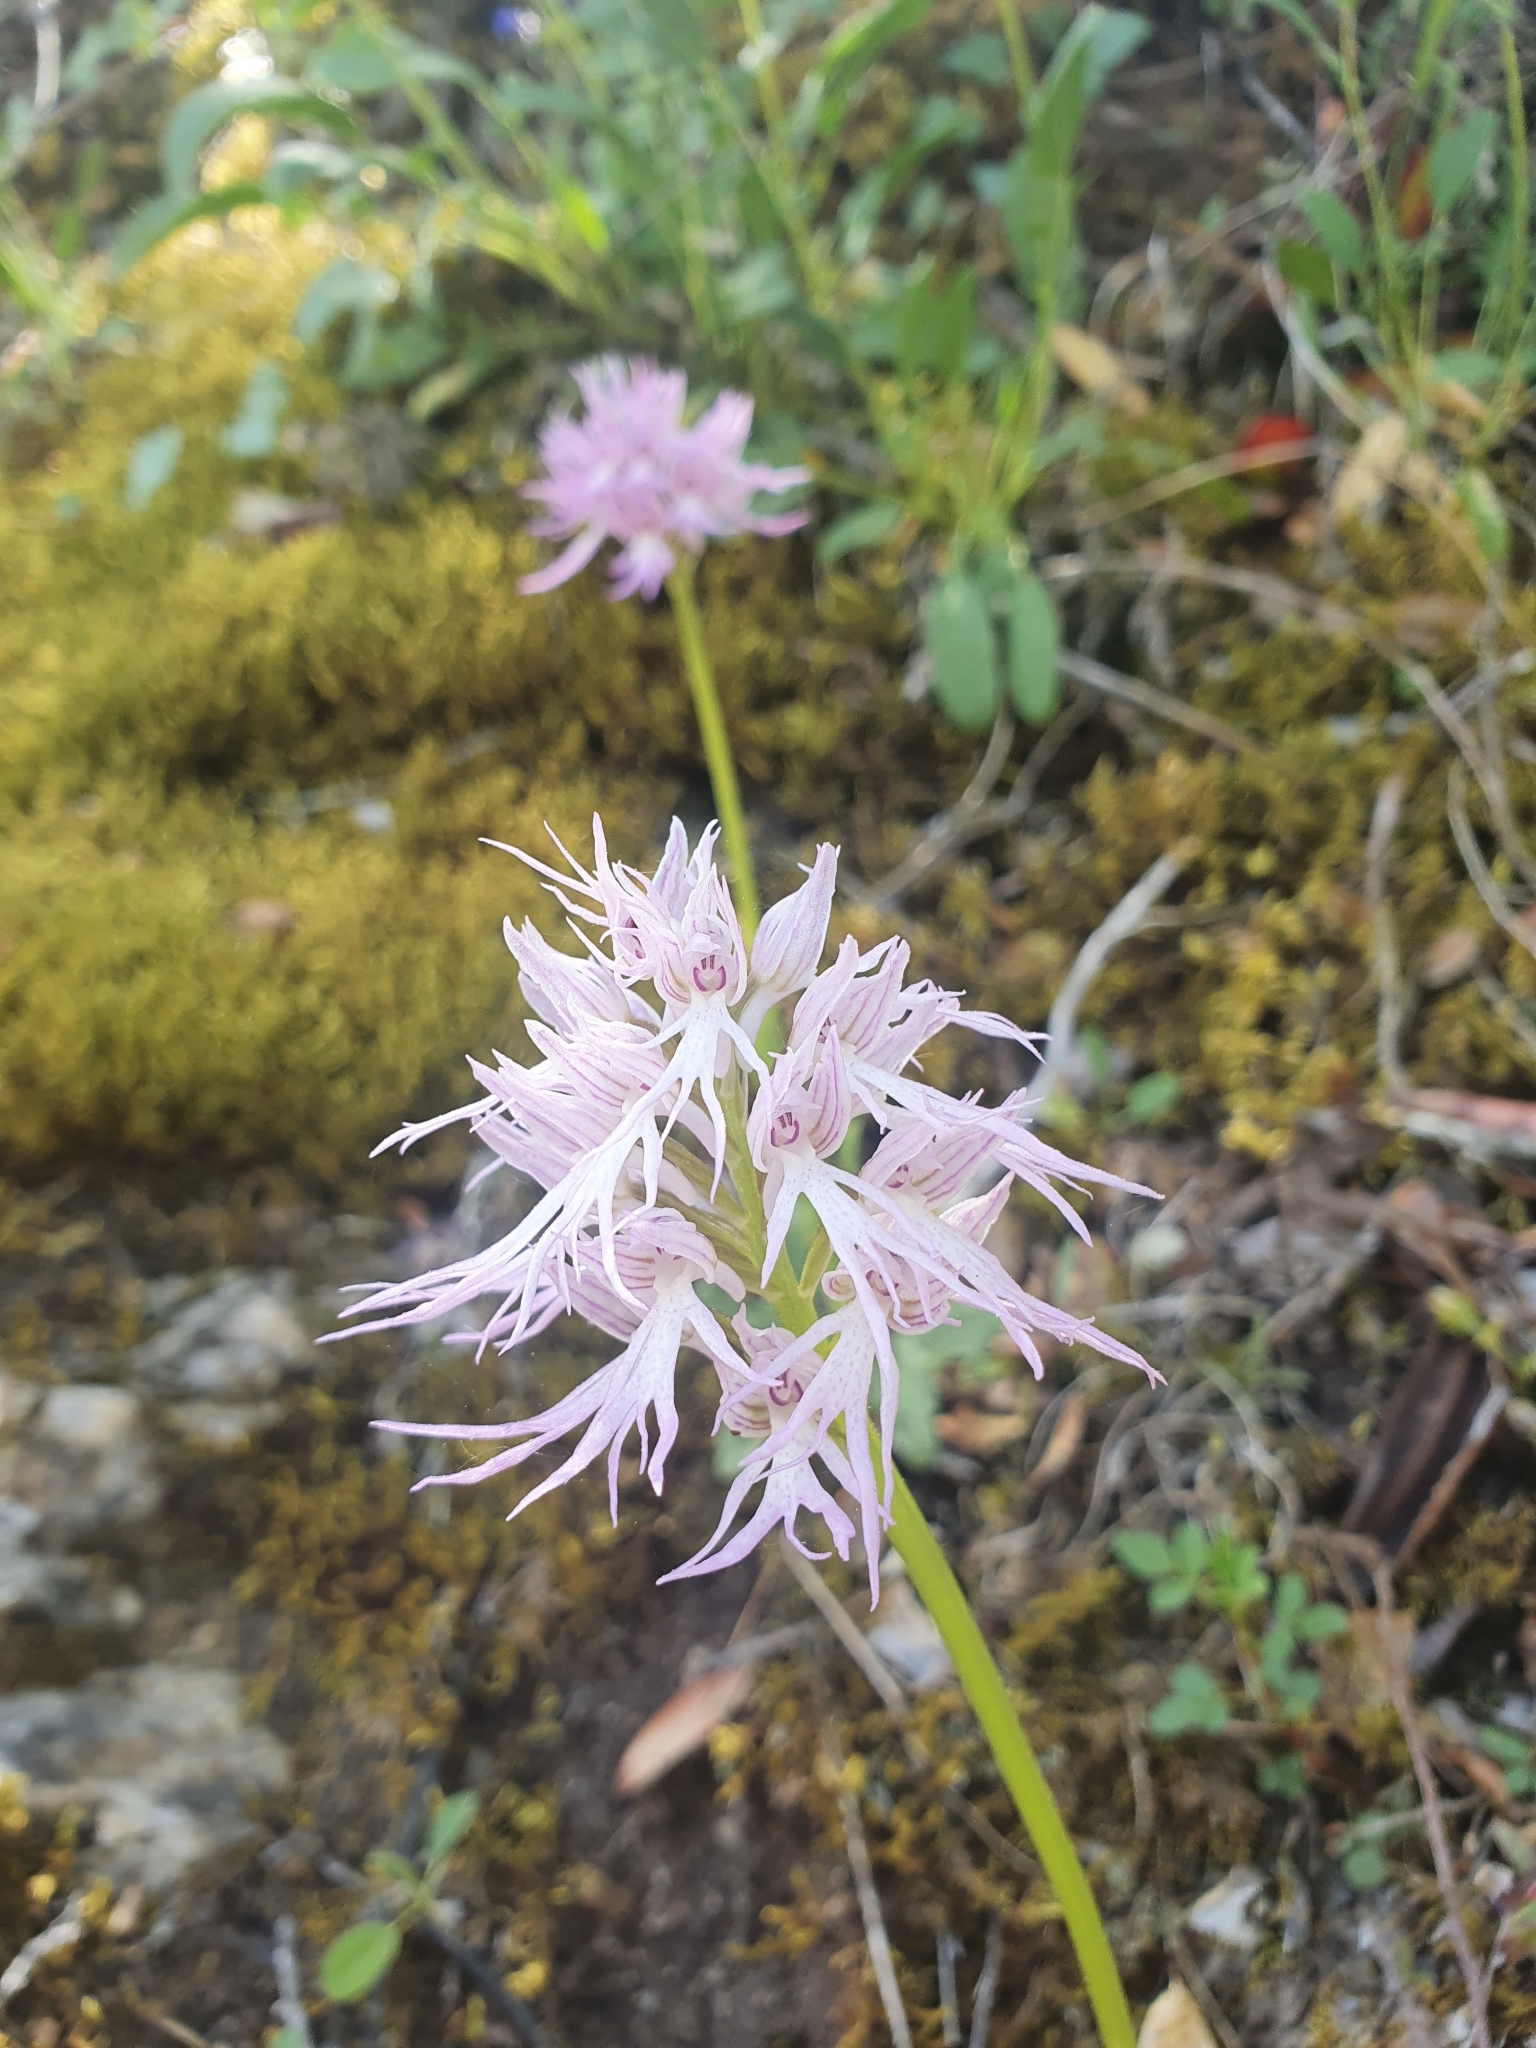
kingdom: Plantae
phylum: Tracheophyta
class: Liliopsida
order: Asparagales
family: Orchidaceae
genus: Orchis
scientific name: Orchis italica
